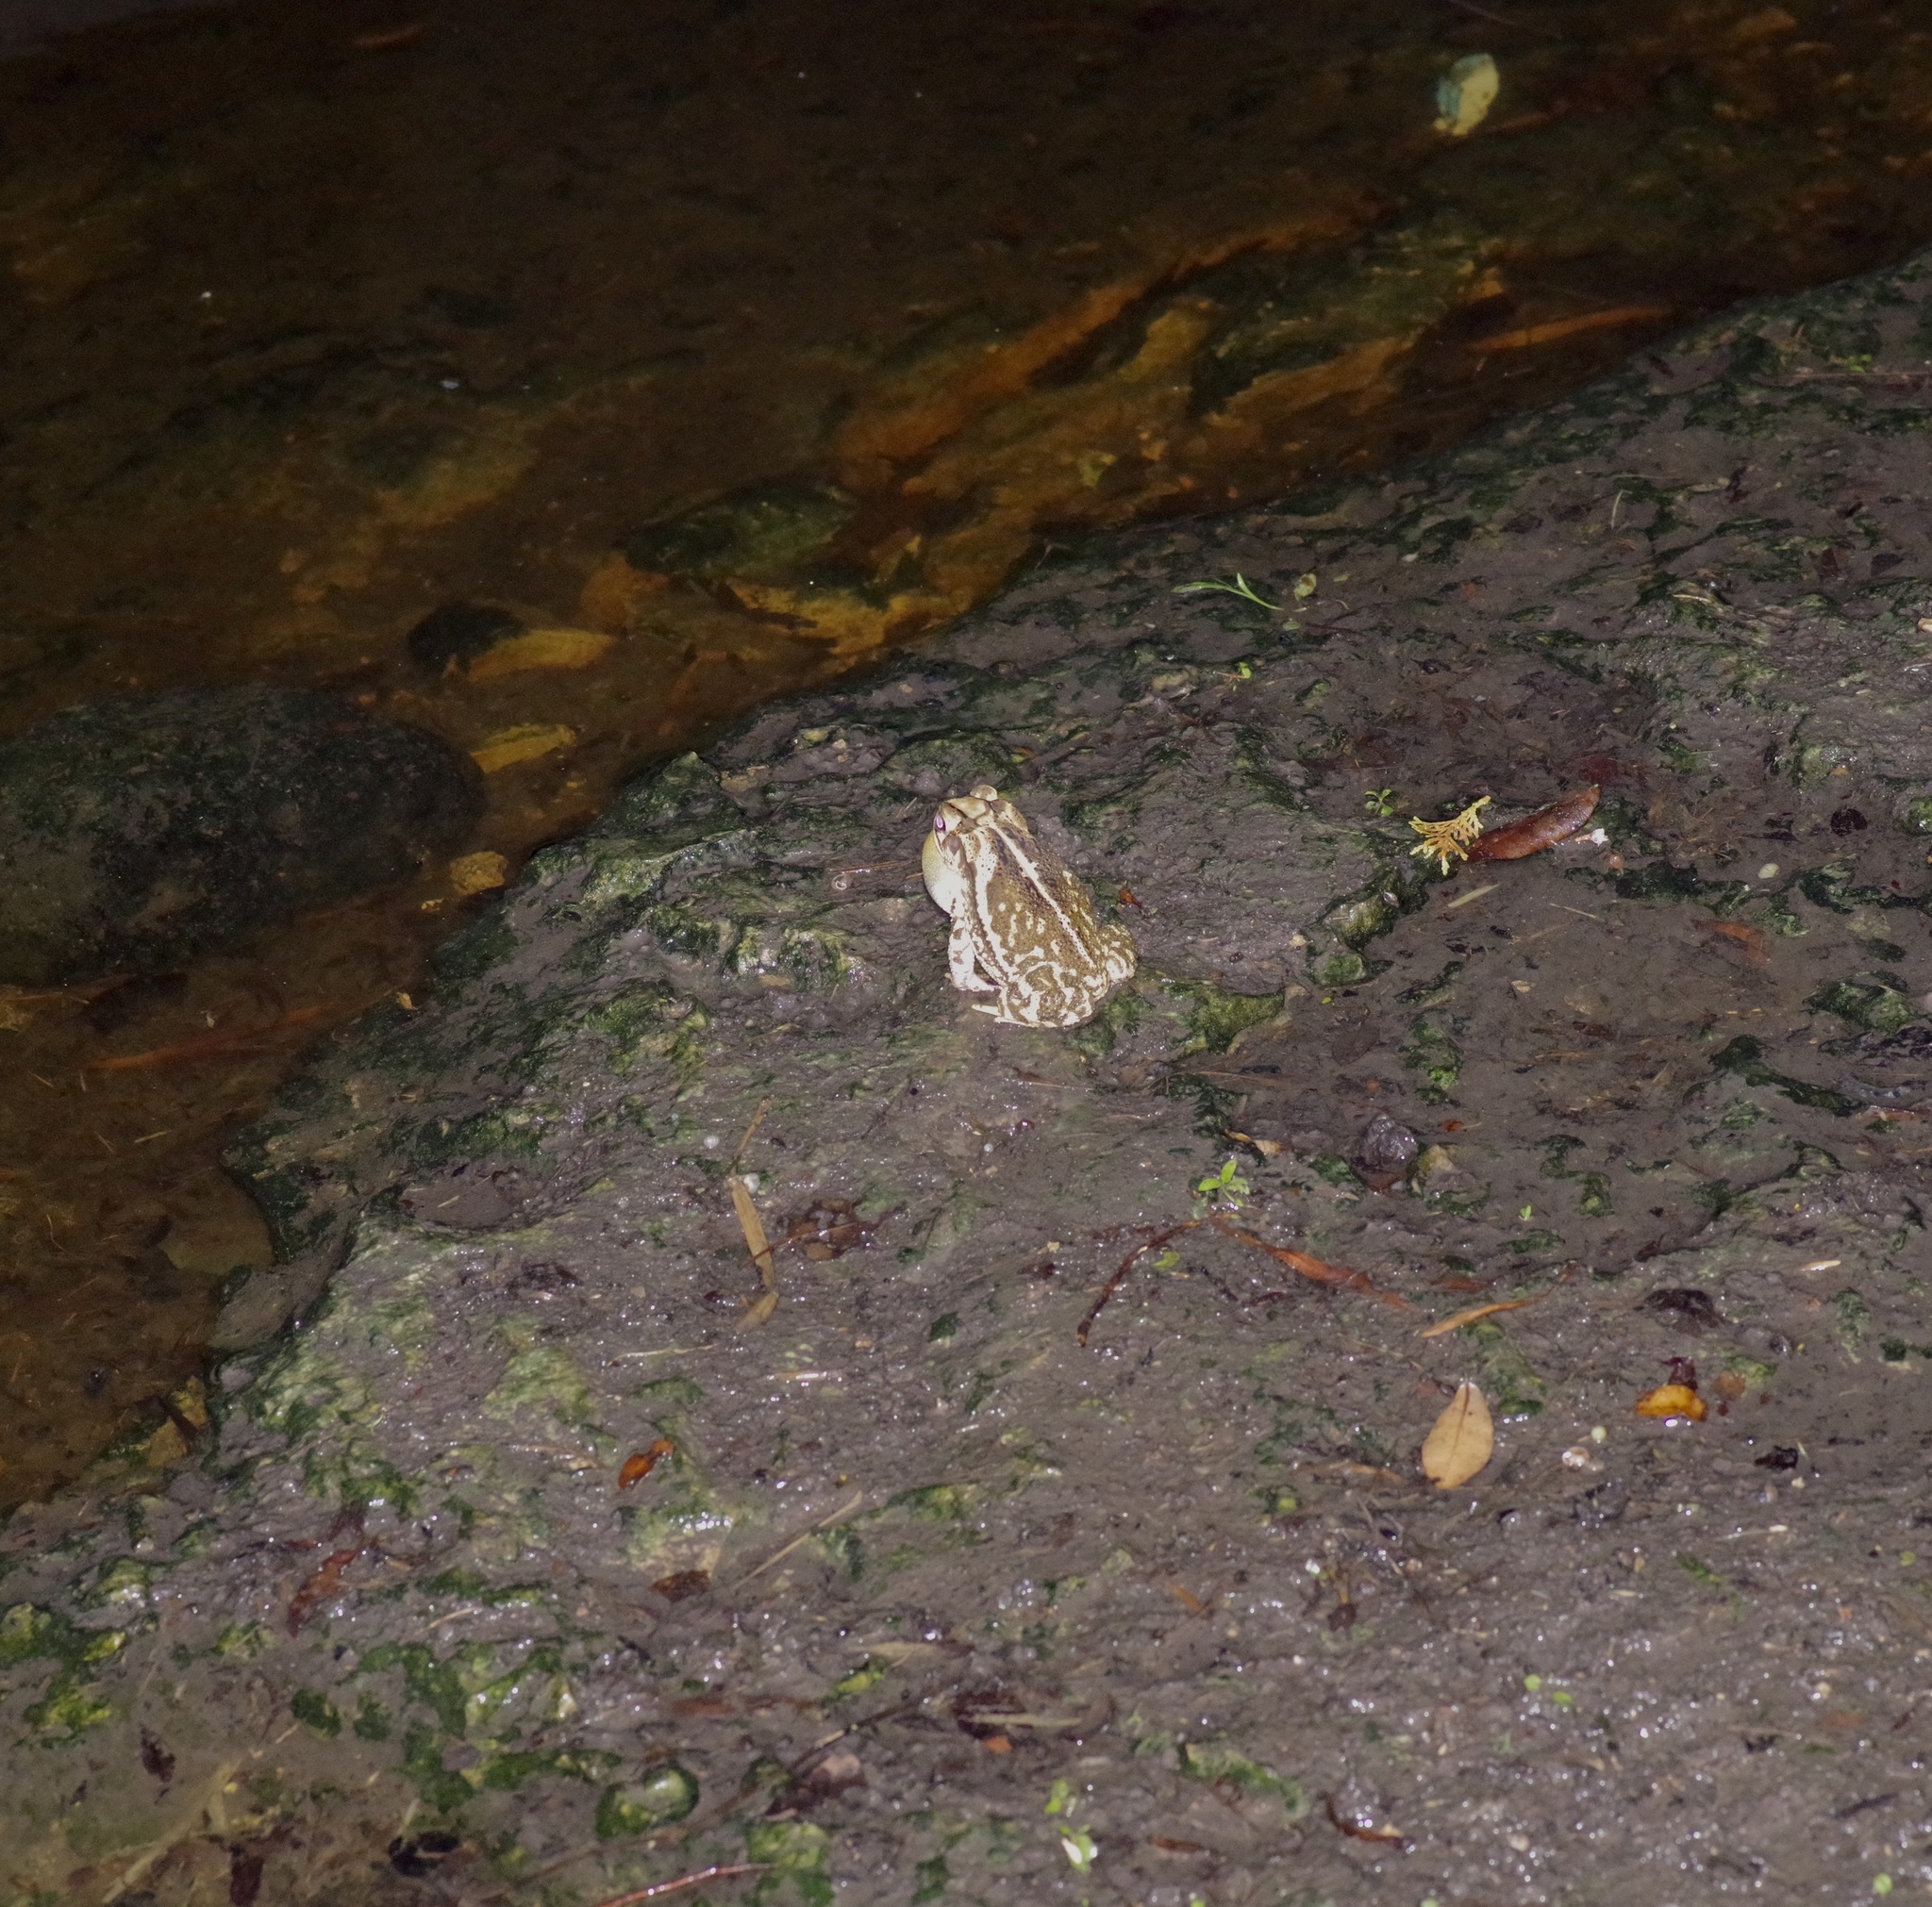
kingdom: Animalia
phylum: Chordata
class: Amphibia
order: Anura
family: Bufonidae
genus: Incilius
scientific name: Incilius nebulifer
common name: Gulf coast toad
